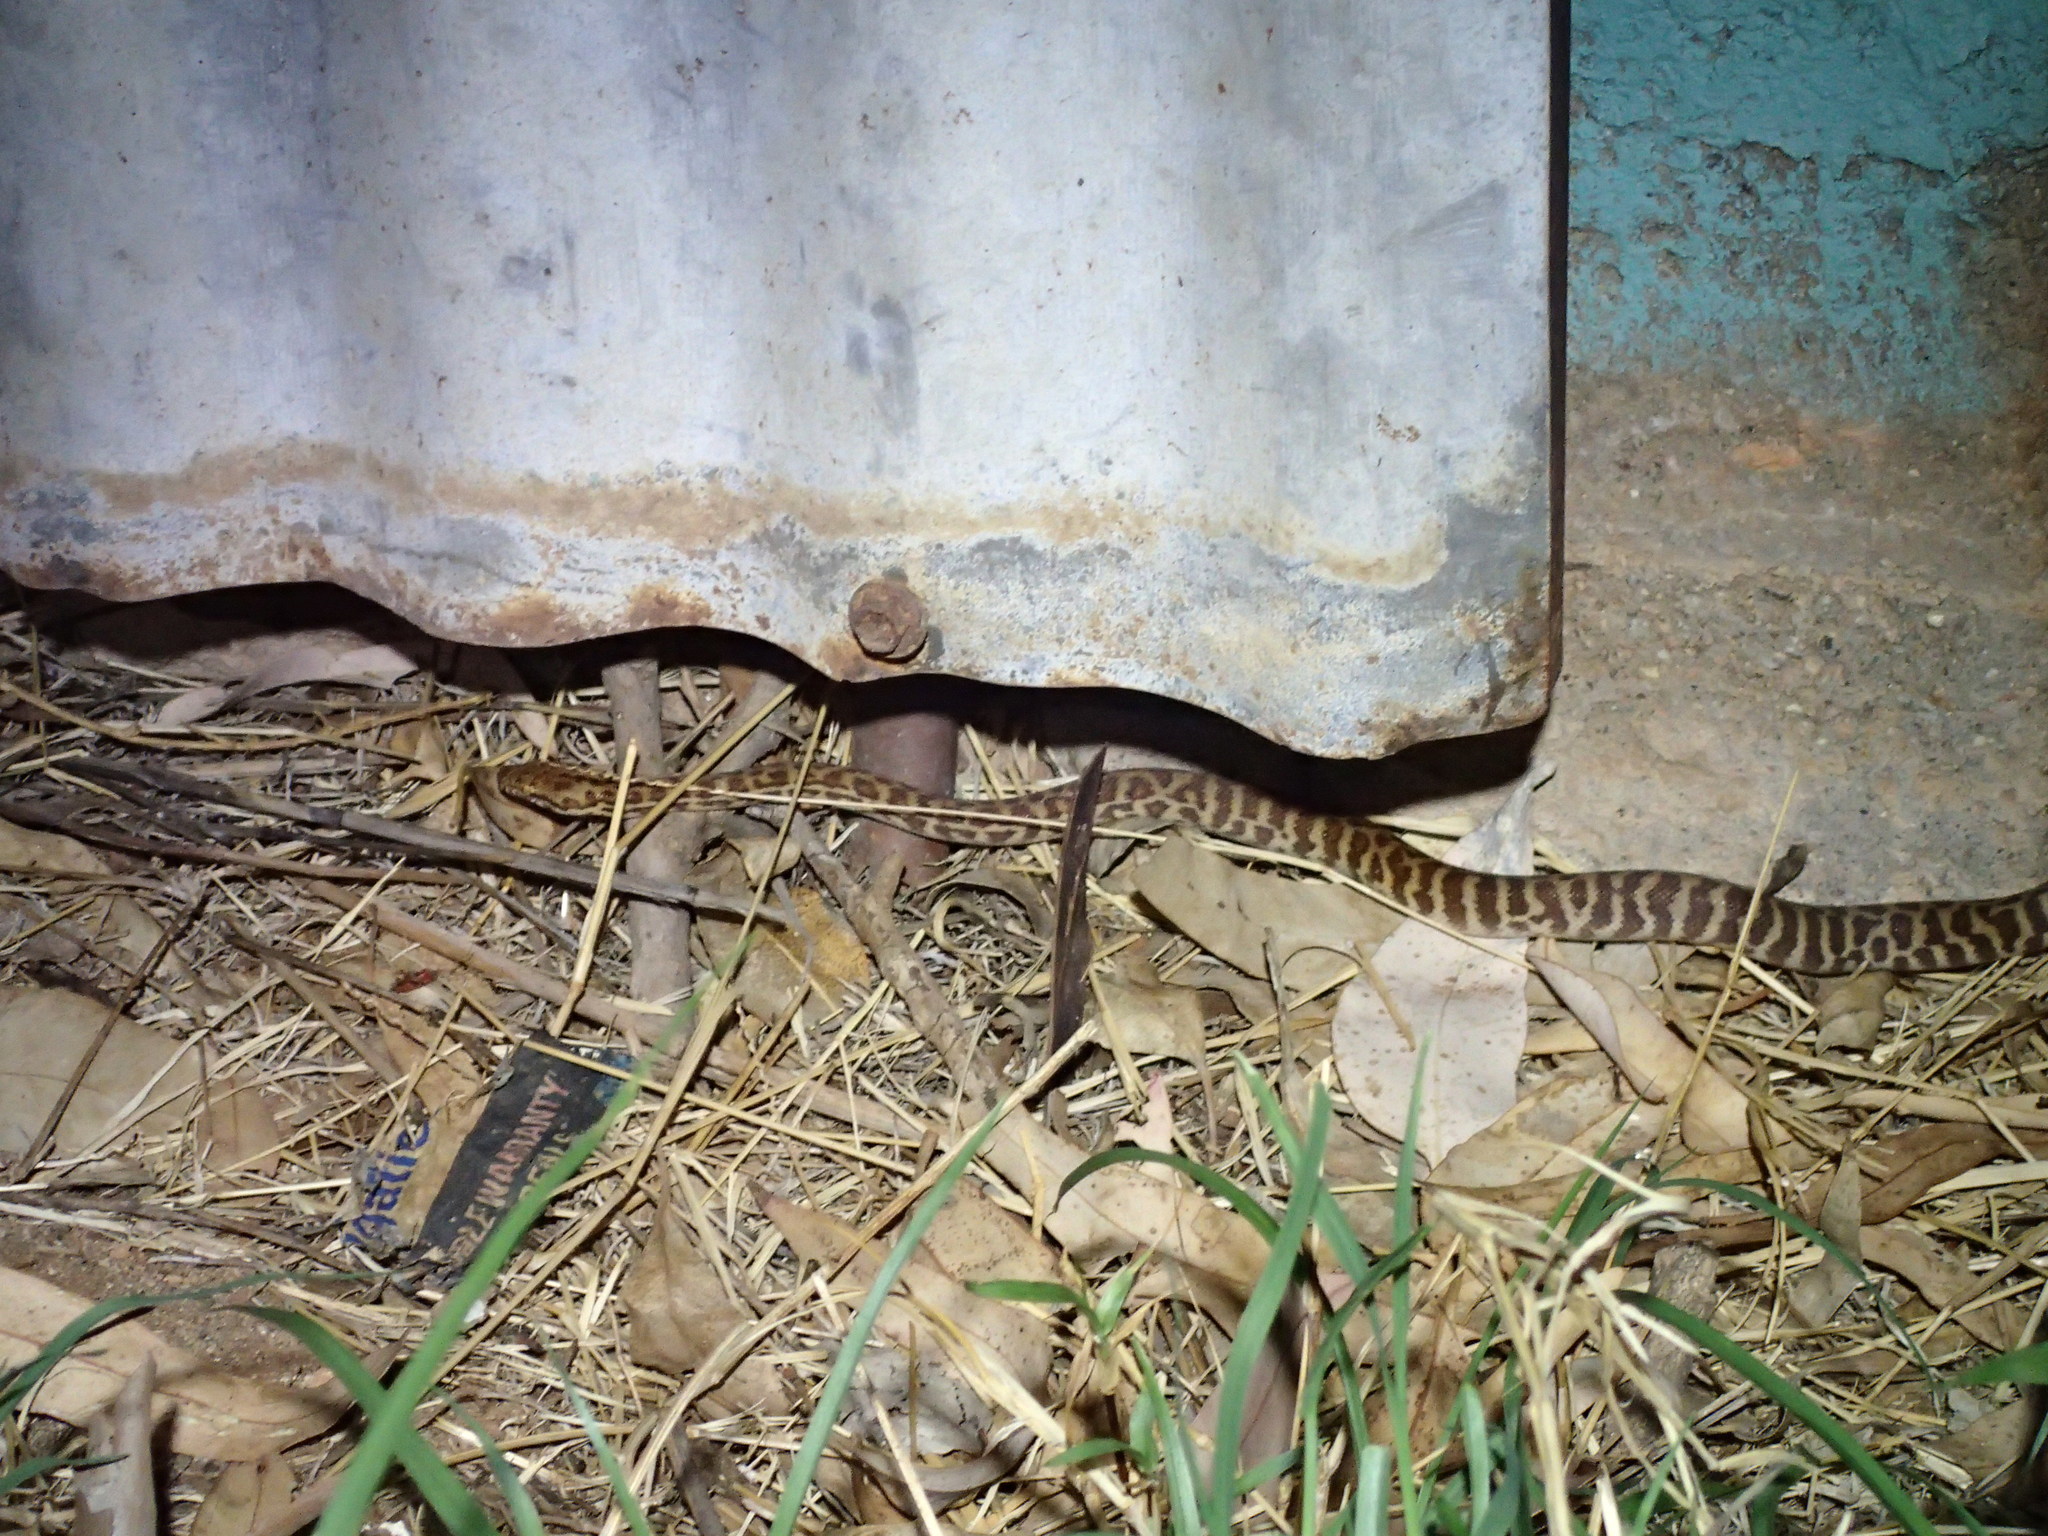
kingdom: Animalia
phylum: Chordata
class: Squamata
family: Pythonidae
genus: Antaresia
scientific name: Antaresia childreni
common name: Children's python
